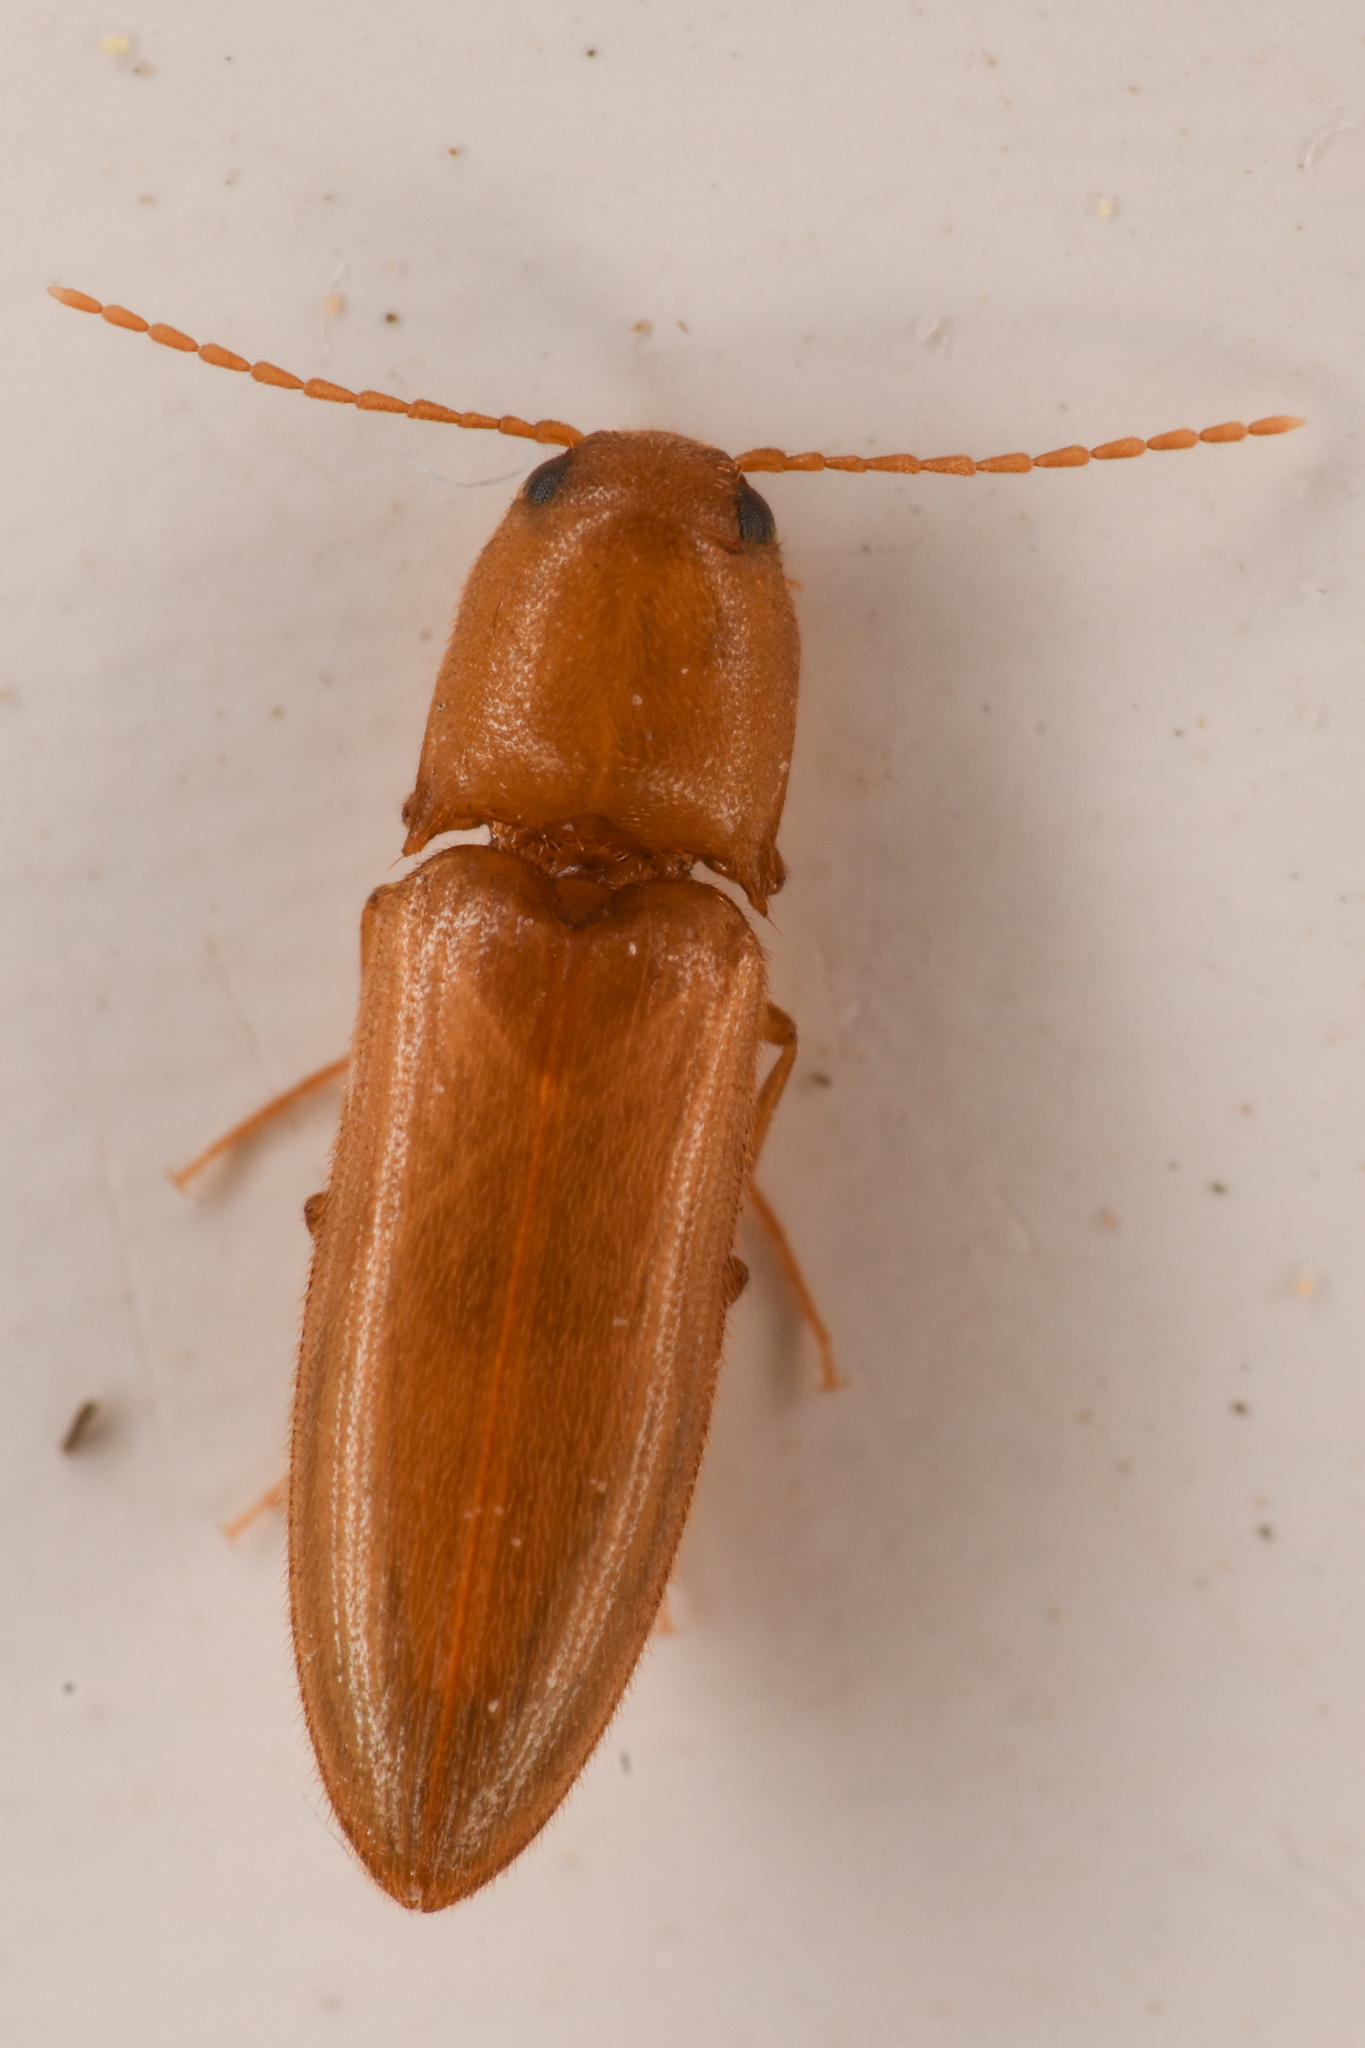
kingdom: Animalia
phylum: Arthropoda
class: Insecta
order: Coleoptera
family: Elateridae
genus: Dolerosomus
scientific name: Dolerosomus blaisdelli
